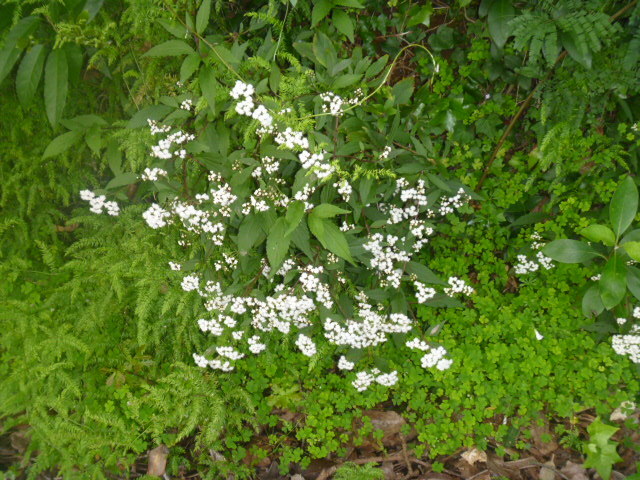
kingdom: Plantae
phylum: Tracheophyta
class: Magnoliopsida
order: Asterales
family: Asteraceae
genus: Ageratina
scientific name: Ageratina riparia
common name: Creeping croftonweed
